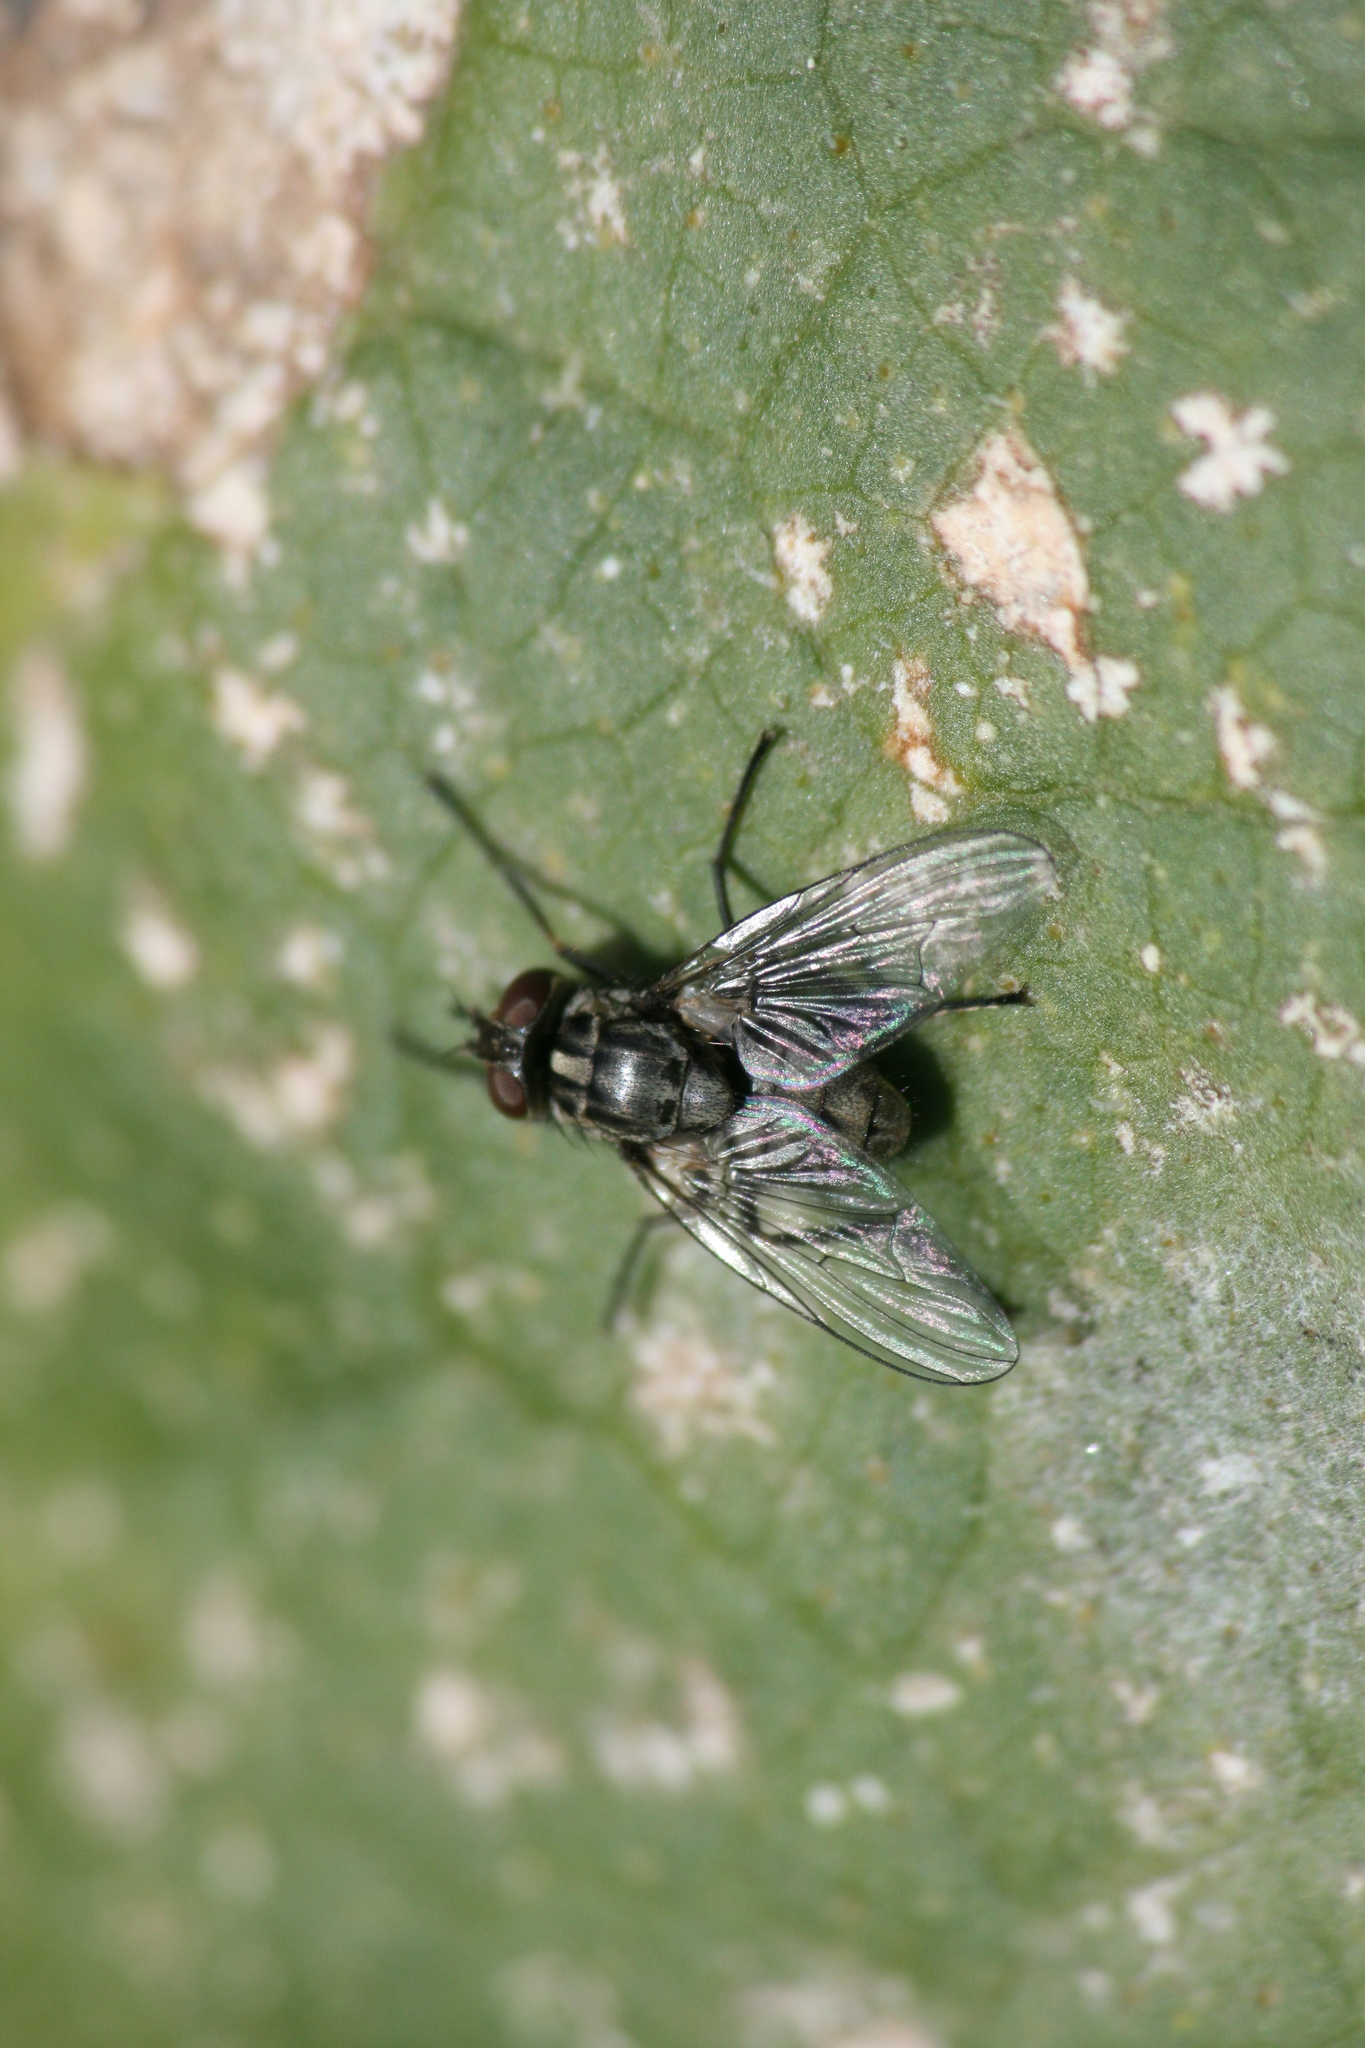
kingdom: Animalia
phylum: Arthropoda
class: Insecta
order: Diptera
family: Muscidae
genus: Stomoxys
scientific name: Stomoxys calcitrans
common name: Stable fly
